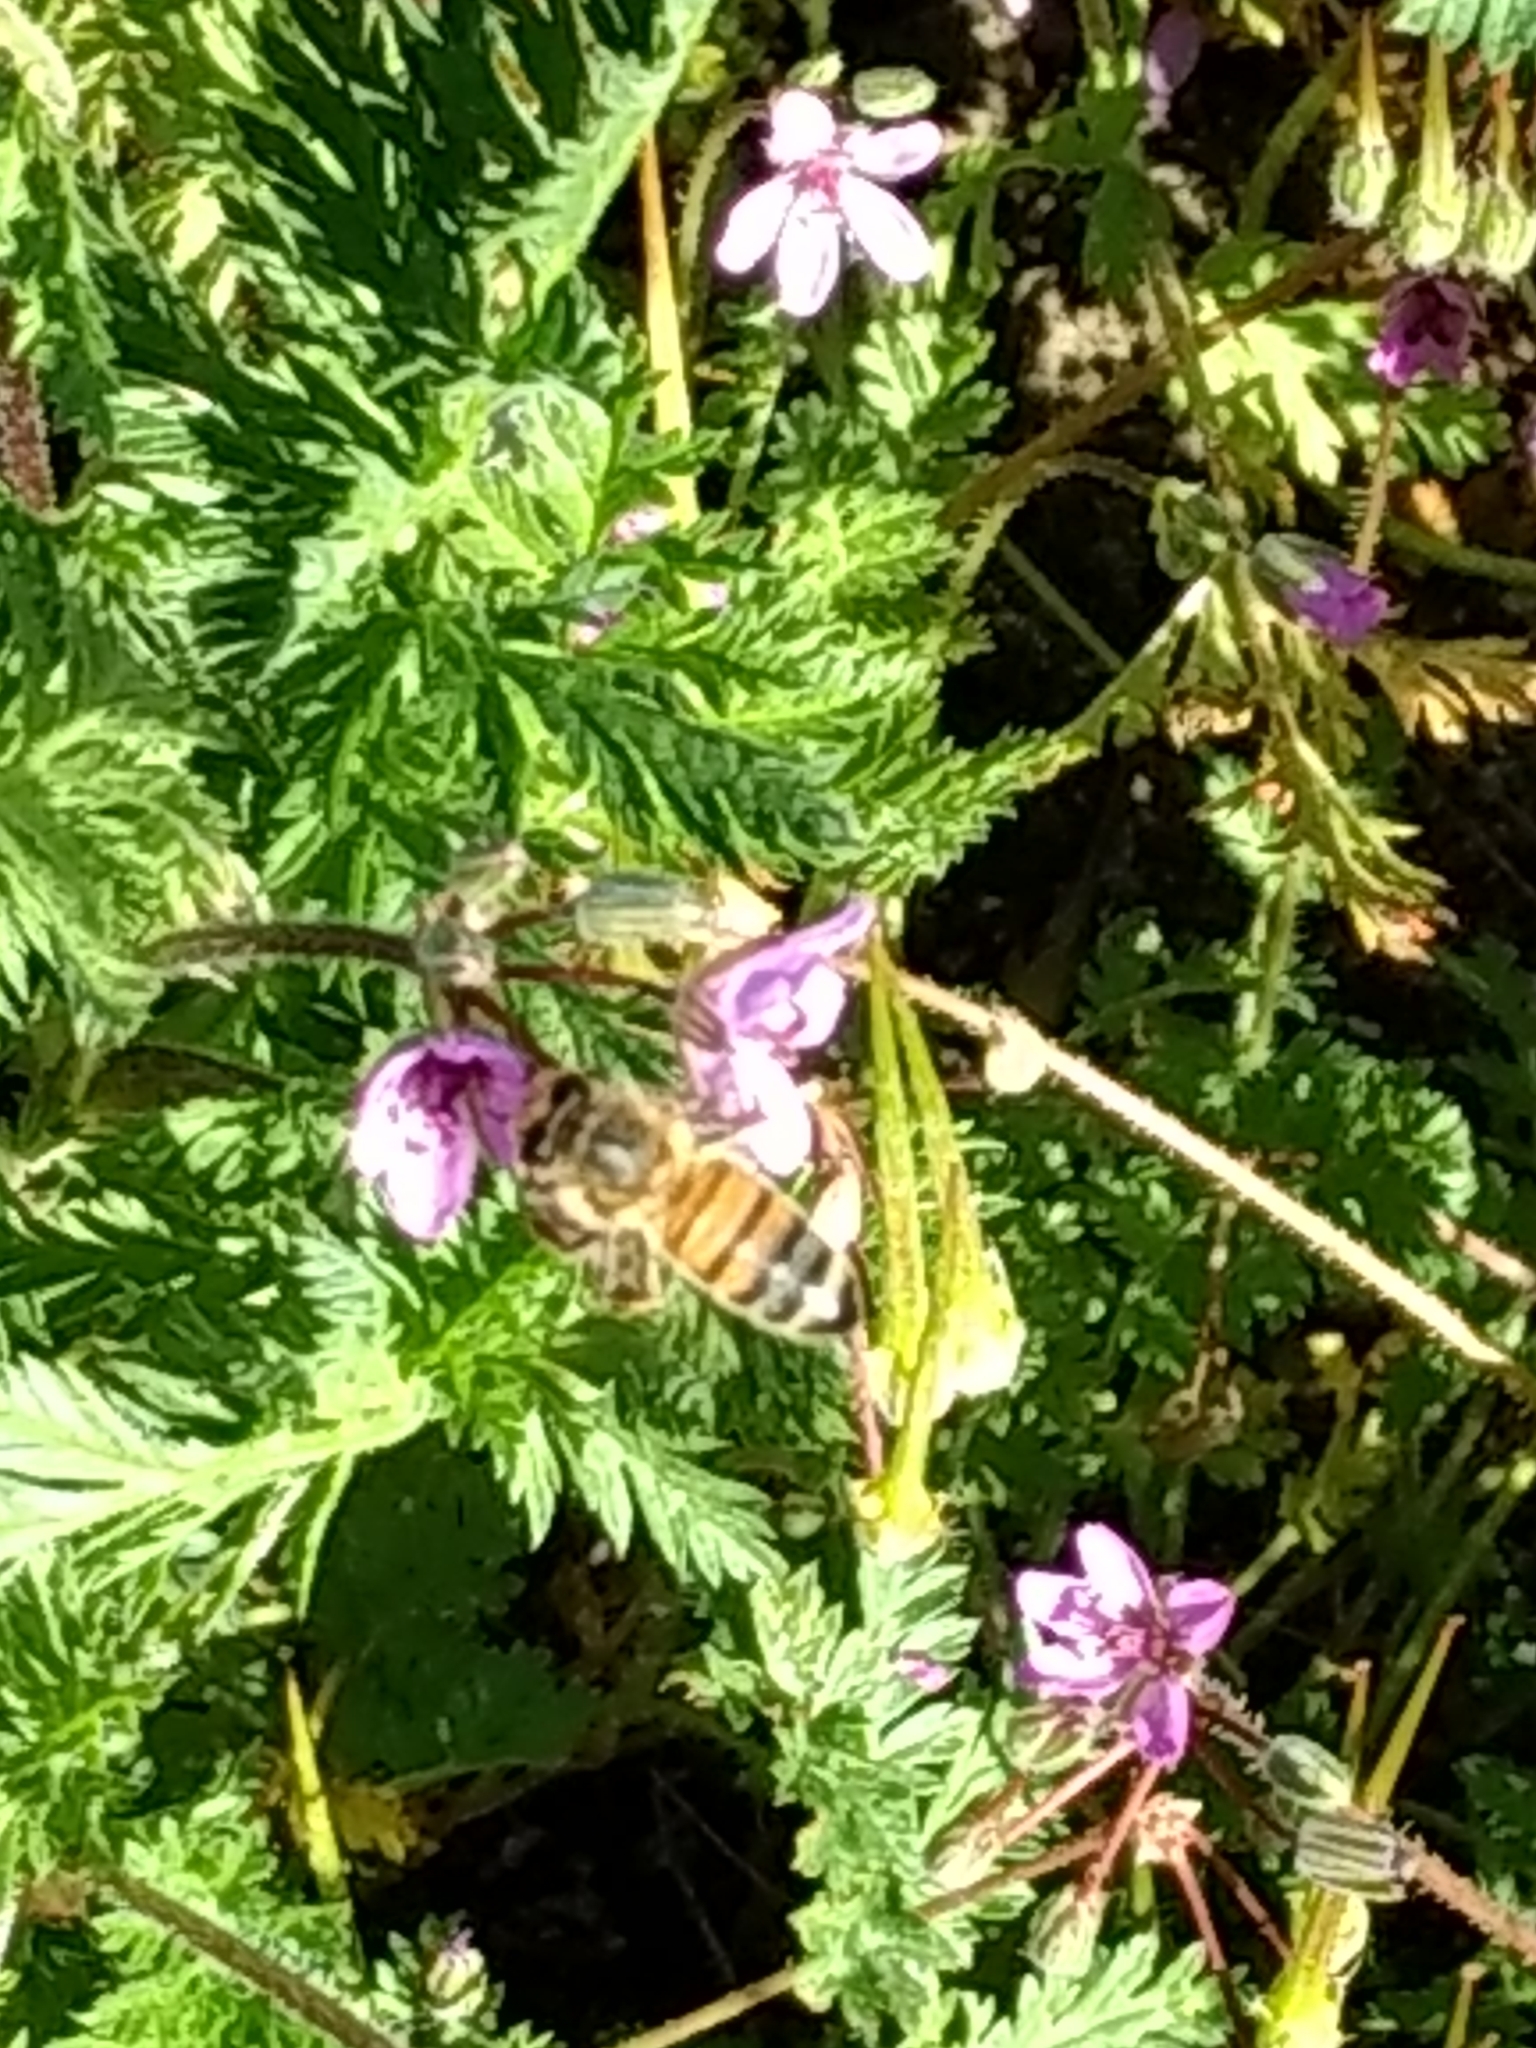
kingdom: Animalia
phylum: Arthropoda
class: Insecta
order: Hymenoptera
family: Apidae
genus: Apis
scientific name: Apis mellifera
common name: Honey bee
